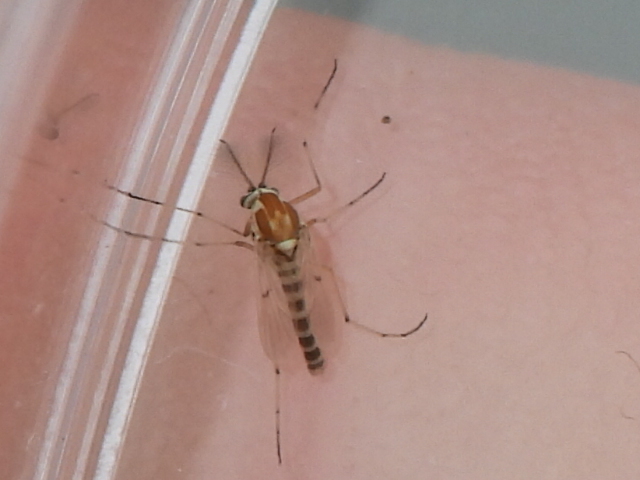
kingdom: Animalia
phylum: Arthropoda
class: Insecta
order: Diptera
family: Chironomidae
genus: Procladius
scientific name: Procladius bellus
